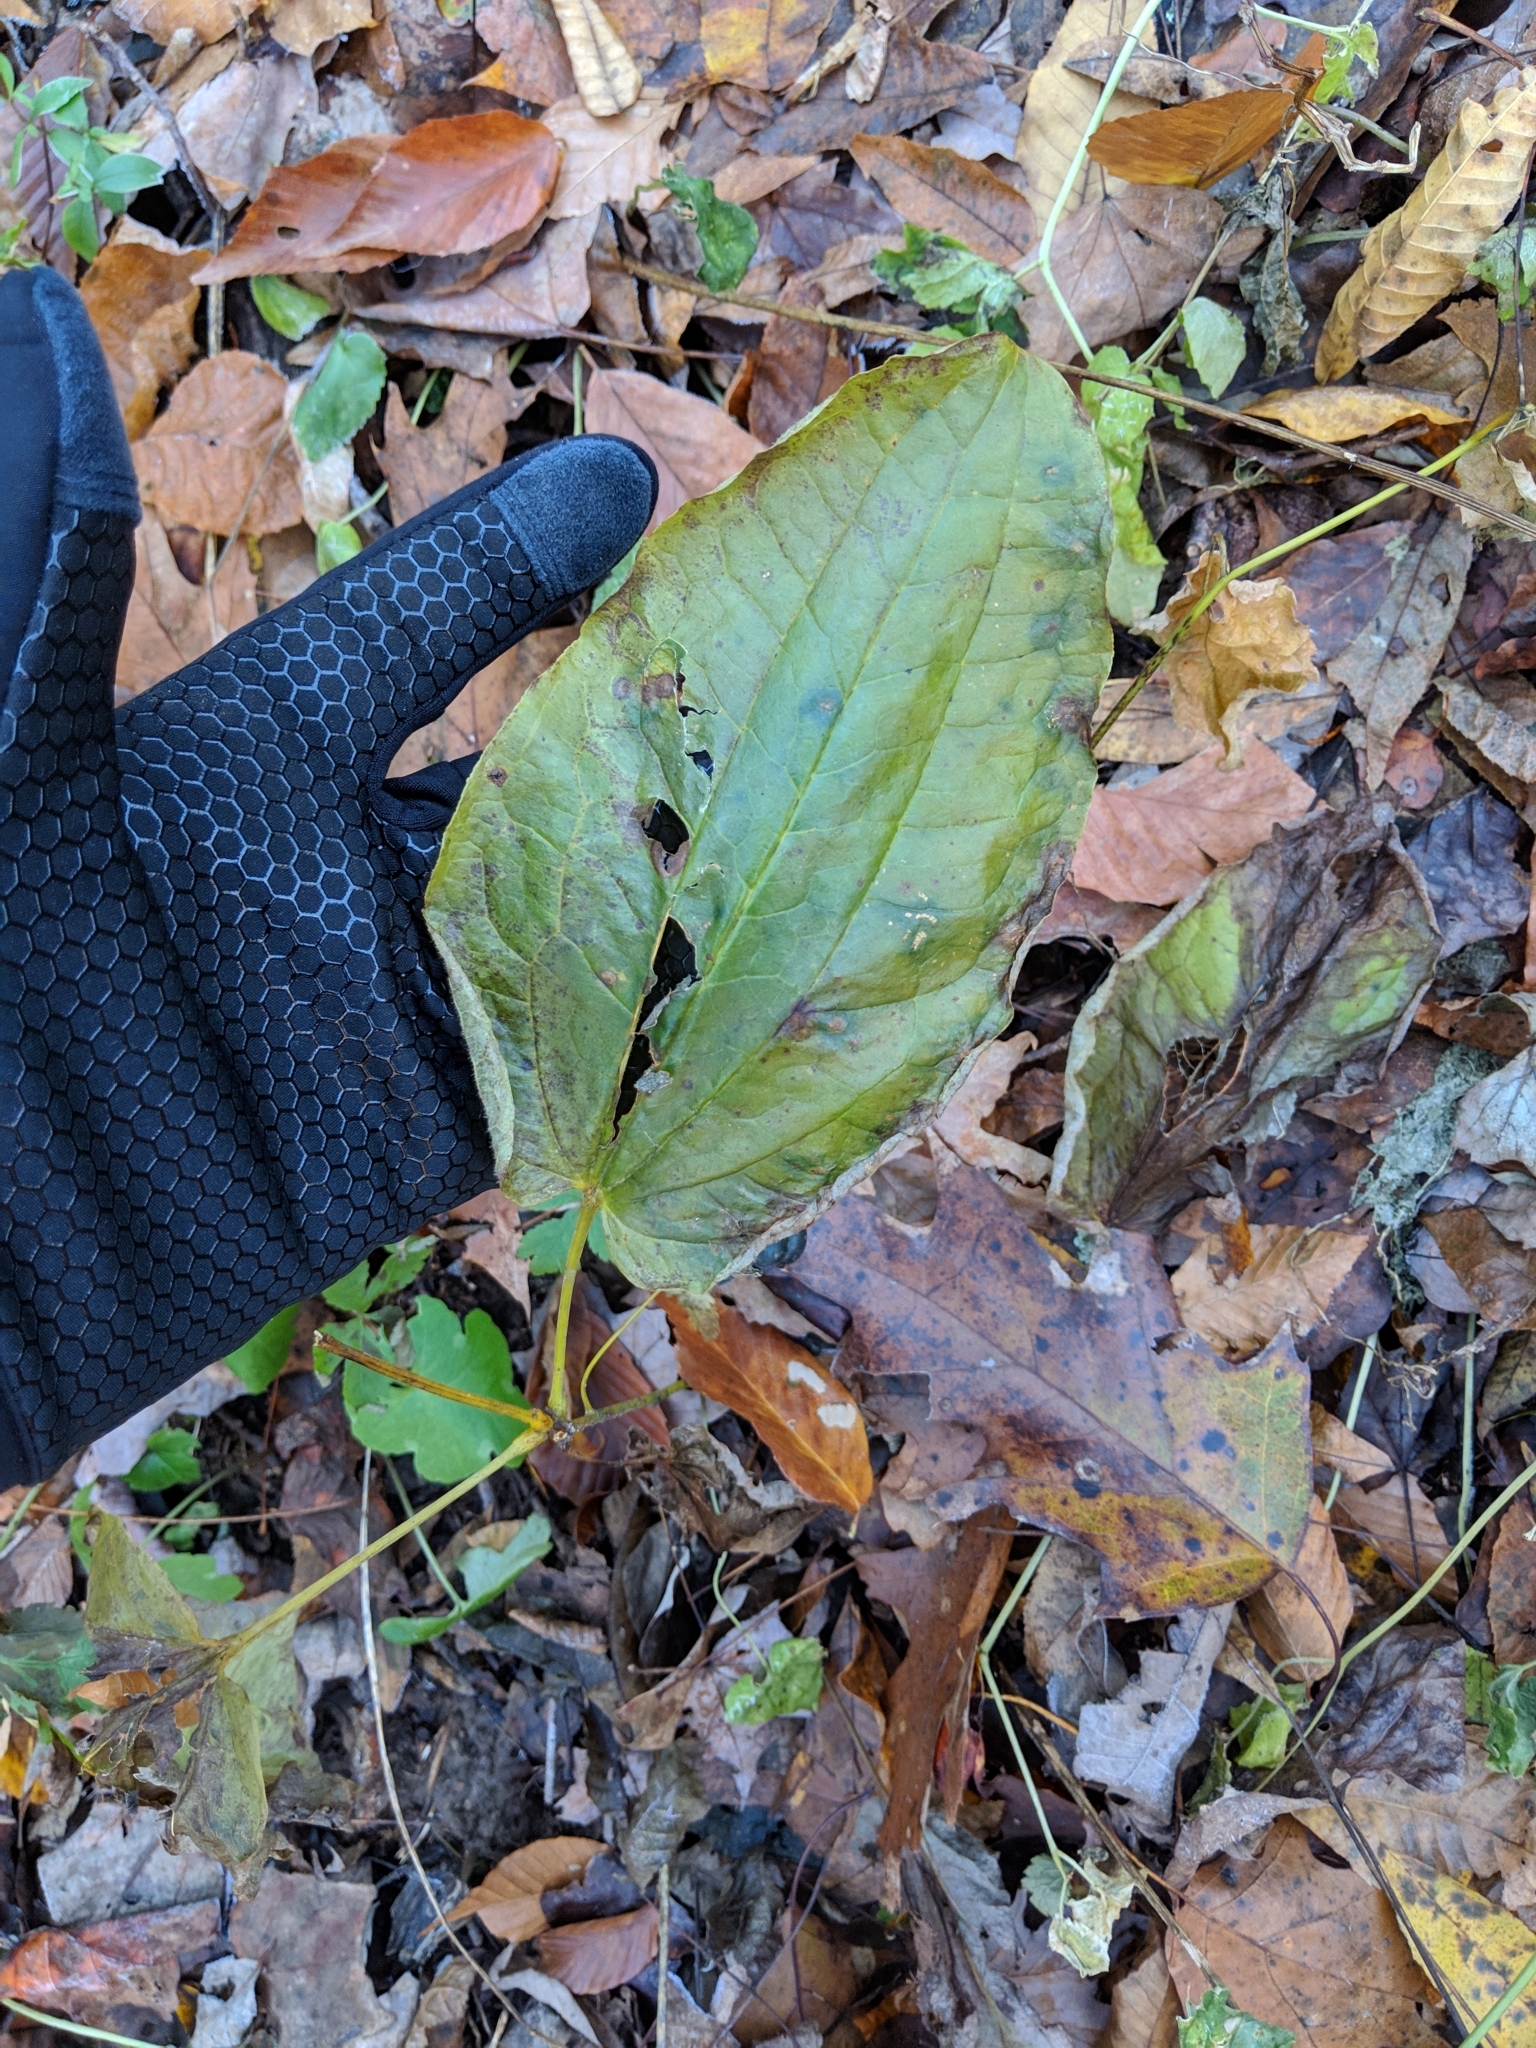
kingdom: Plantae
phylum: Tracheophyta
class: Liliopsida
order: Liliales
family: Smilacaceae
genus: Smilax
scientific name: Smilax ecirrhata
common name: Upright carrionflower
